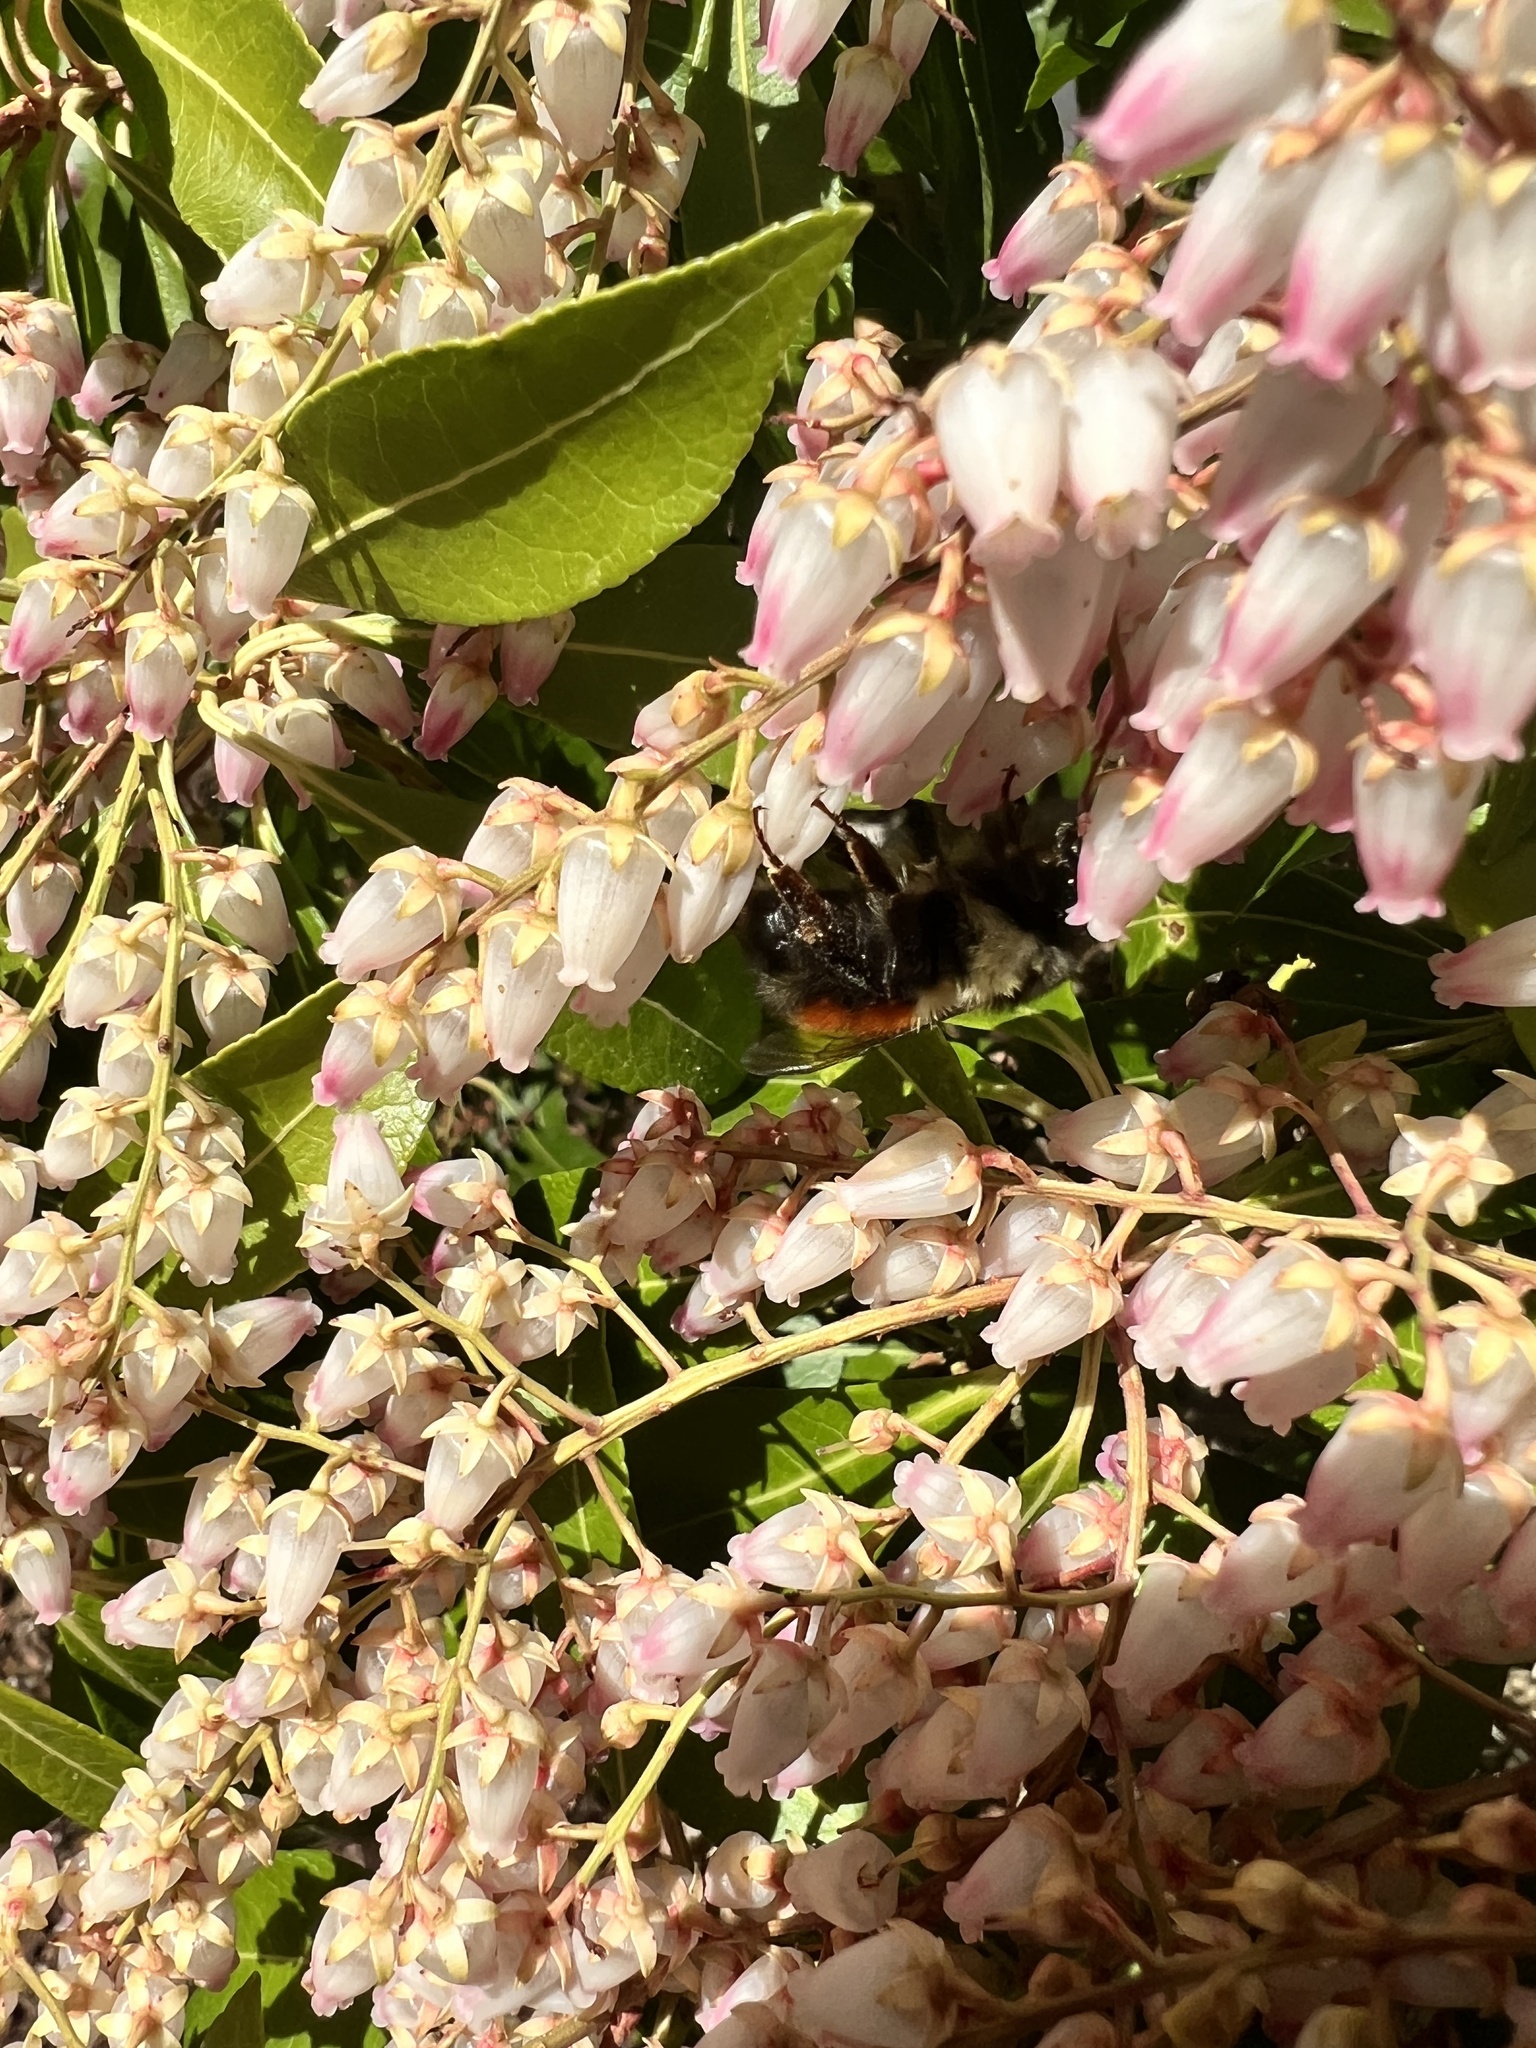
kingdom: Animalia
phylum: Arthropoda
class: Insecta
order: Hymenoptera
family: Apidae
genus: Bombus
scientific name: Bombus melanopygus
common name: Black tail bumble bee
